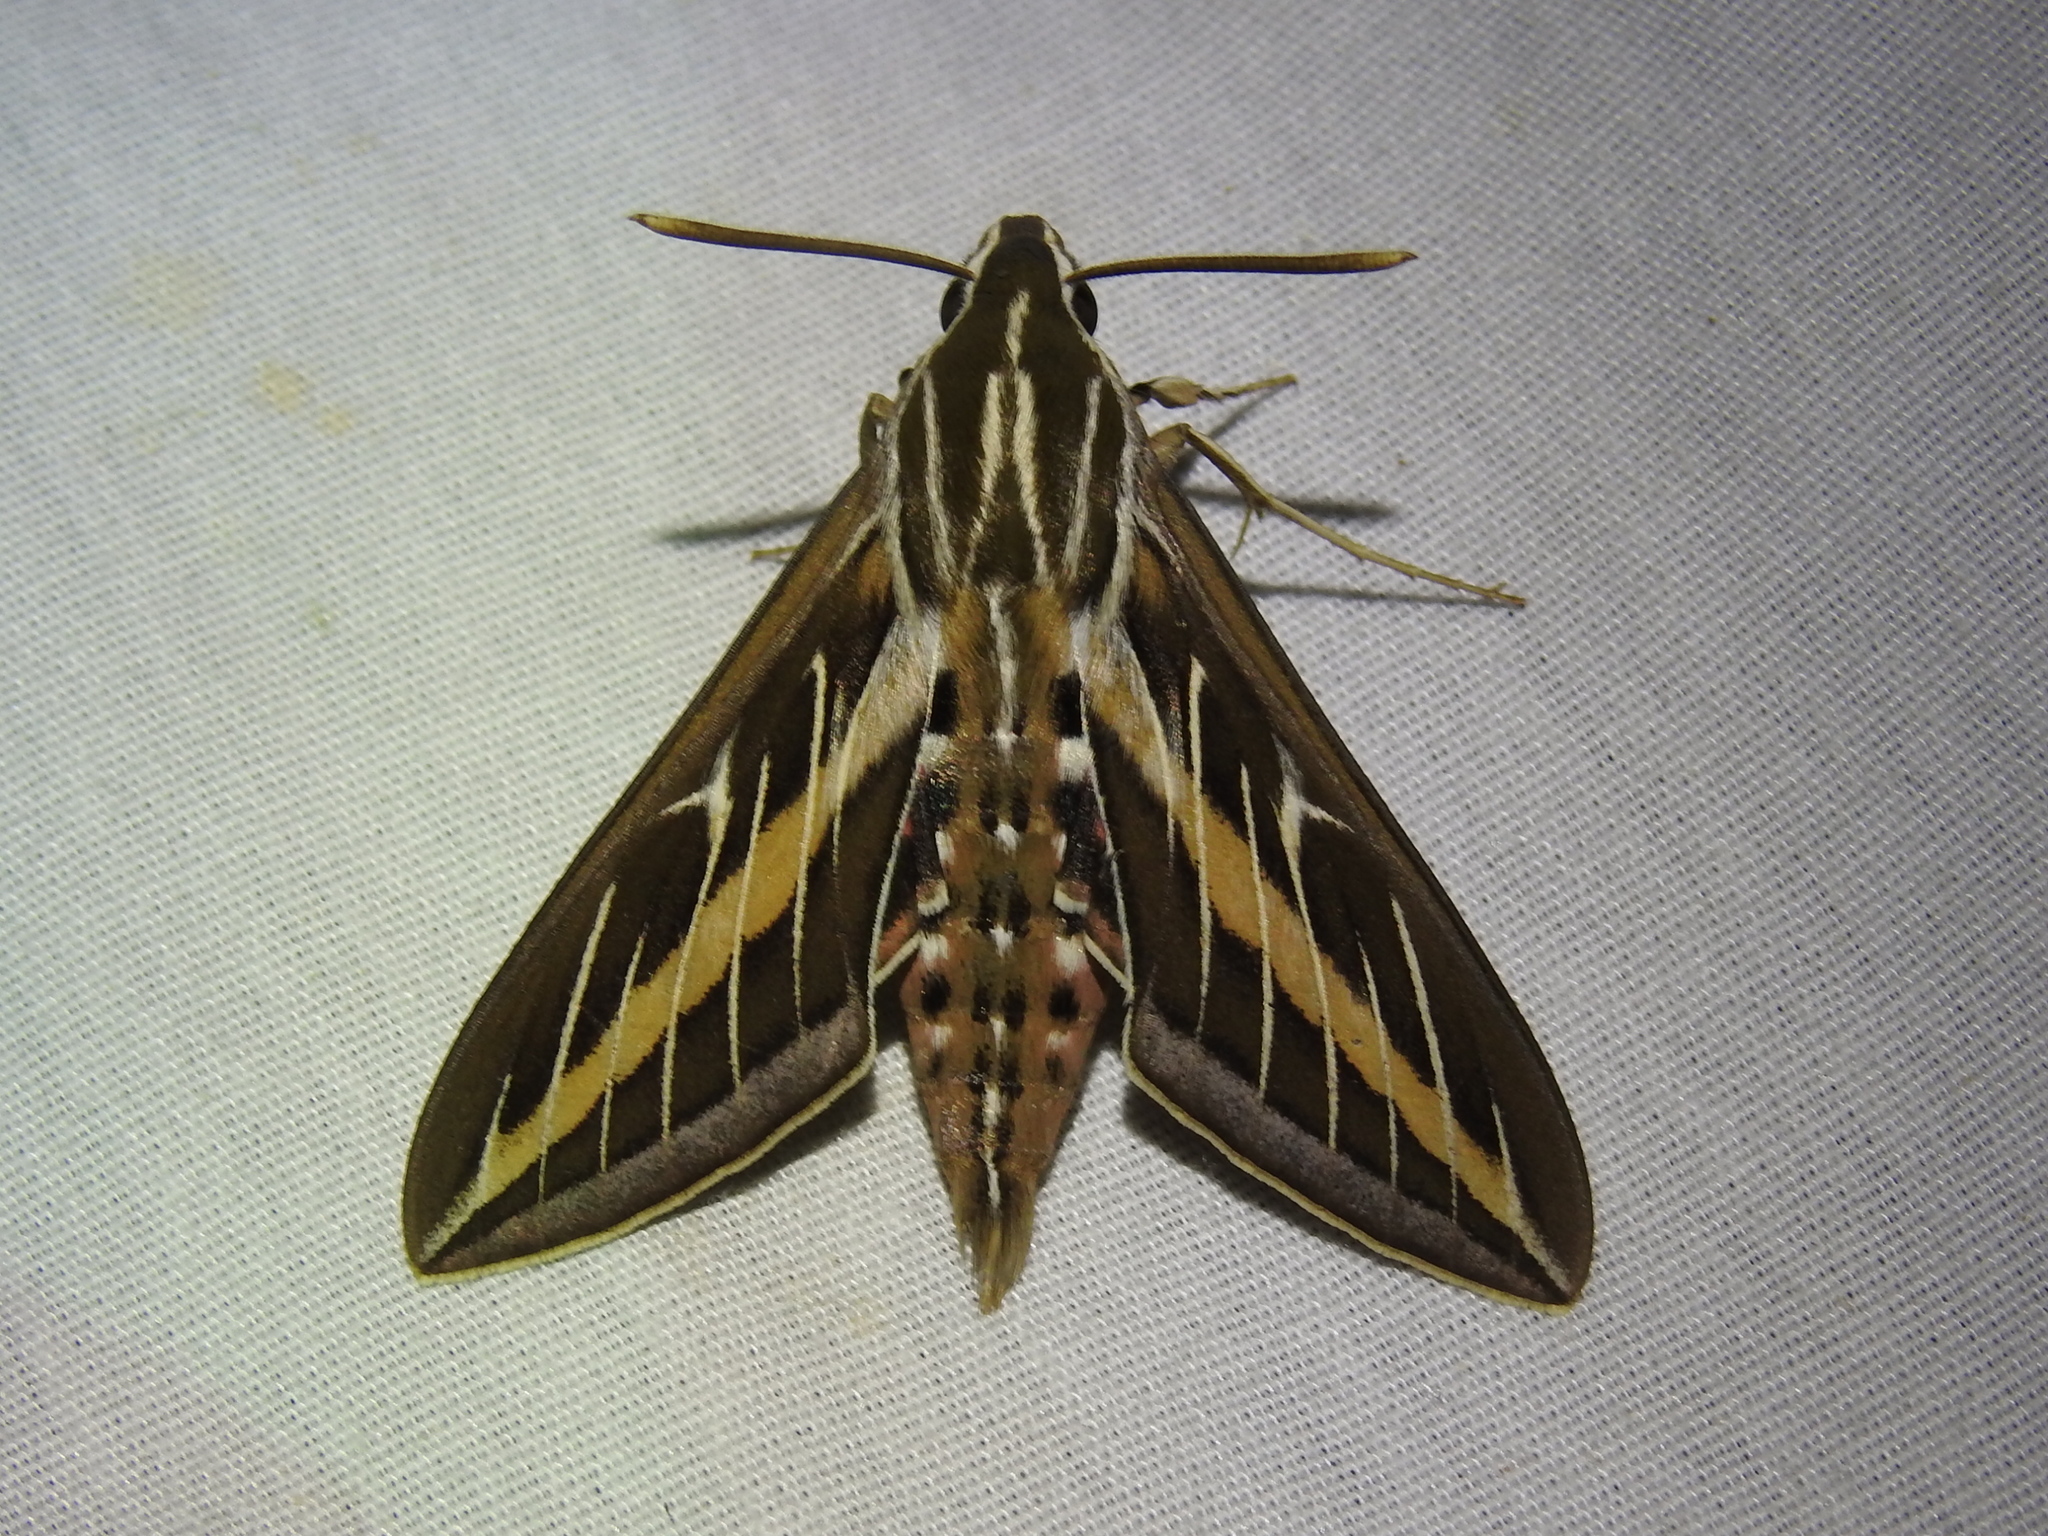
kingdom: Animalia
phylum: Arthropoda
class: Insecta
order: Lepidoptera
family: Sphingidae
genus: Hyles
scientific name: Hyles lineata
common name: White-lined sphinx
